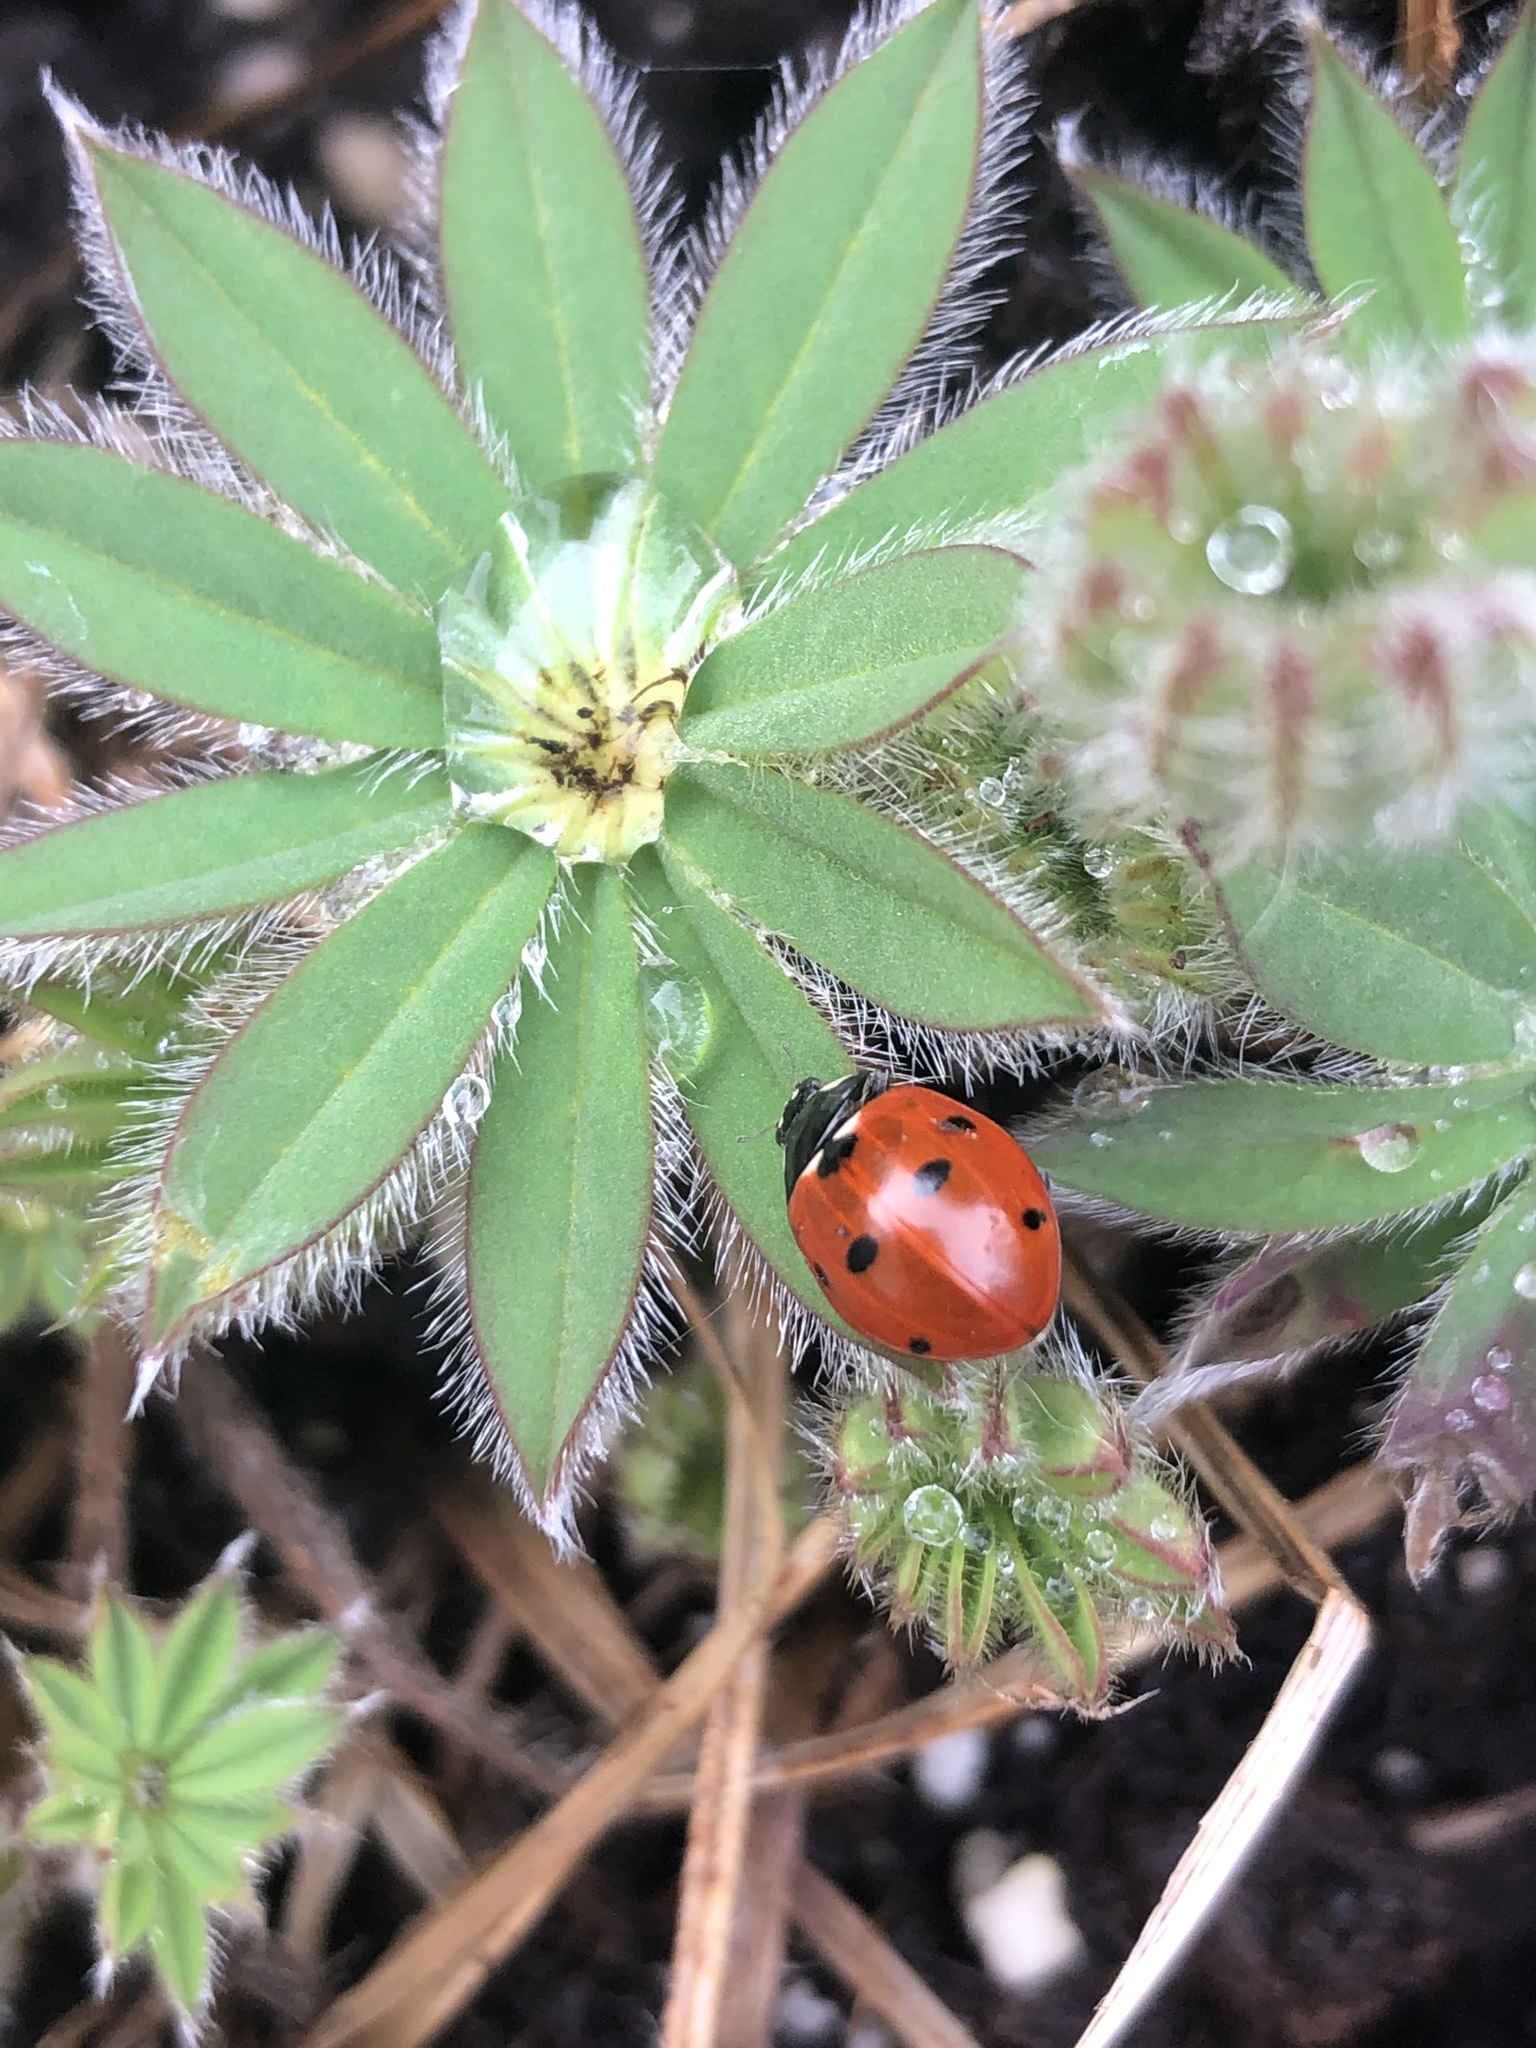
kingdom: Animalia
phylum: Arthropoda
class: Insecta
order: Coleoptera
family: Coccinellidae
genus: Coccinella
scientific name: Coccinella septempunctata
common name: Sevenspotted lady beetle
